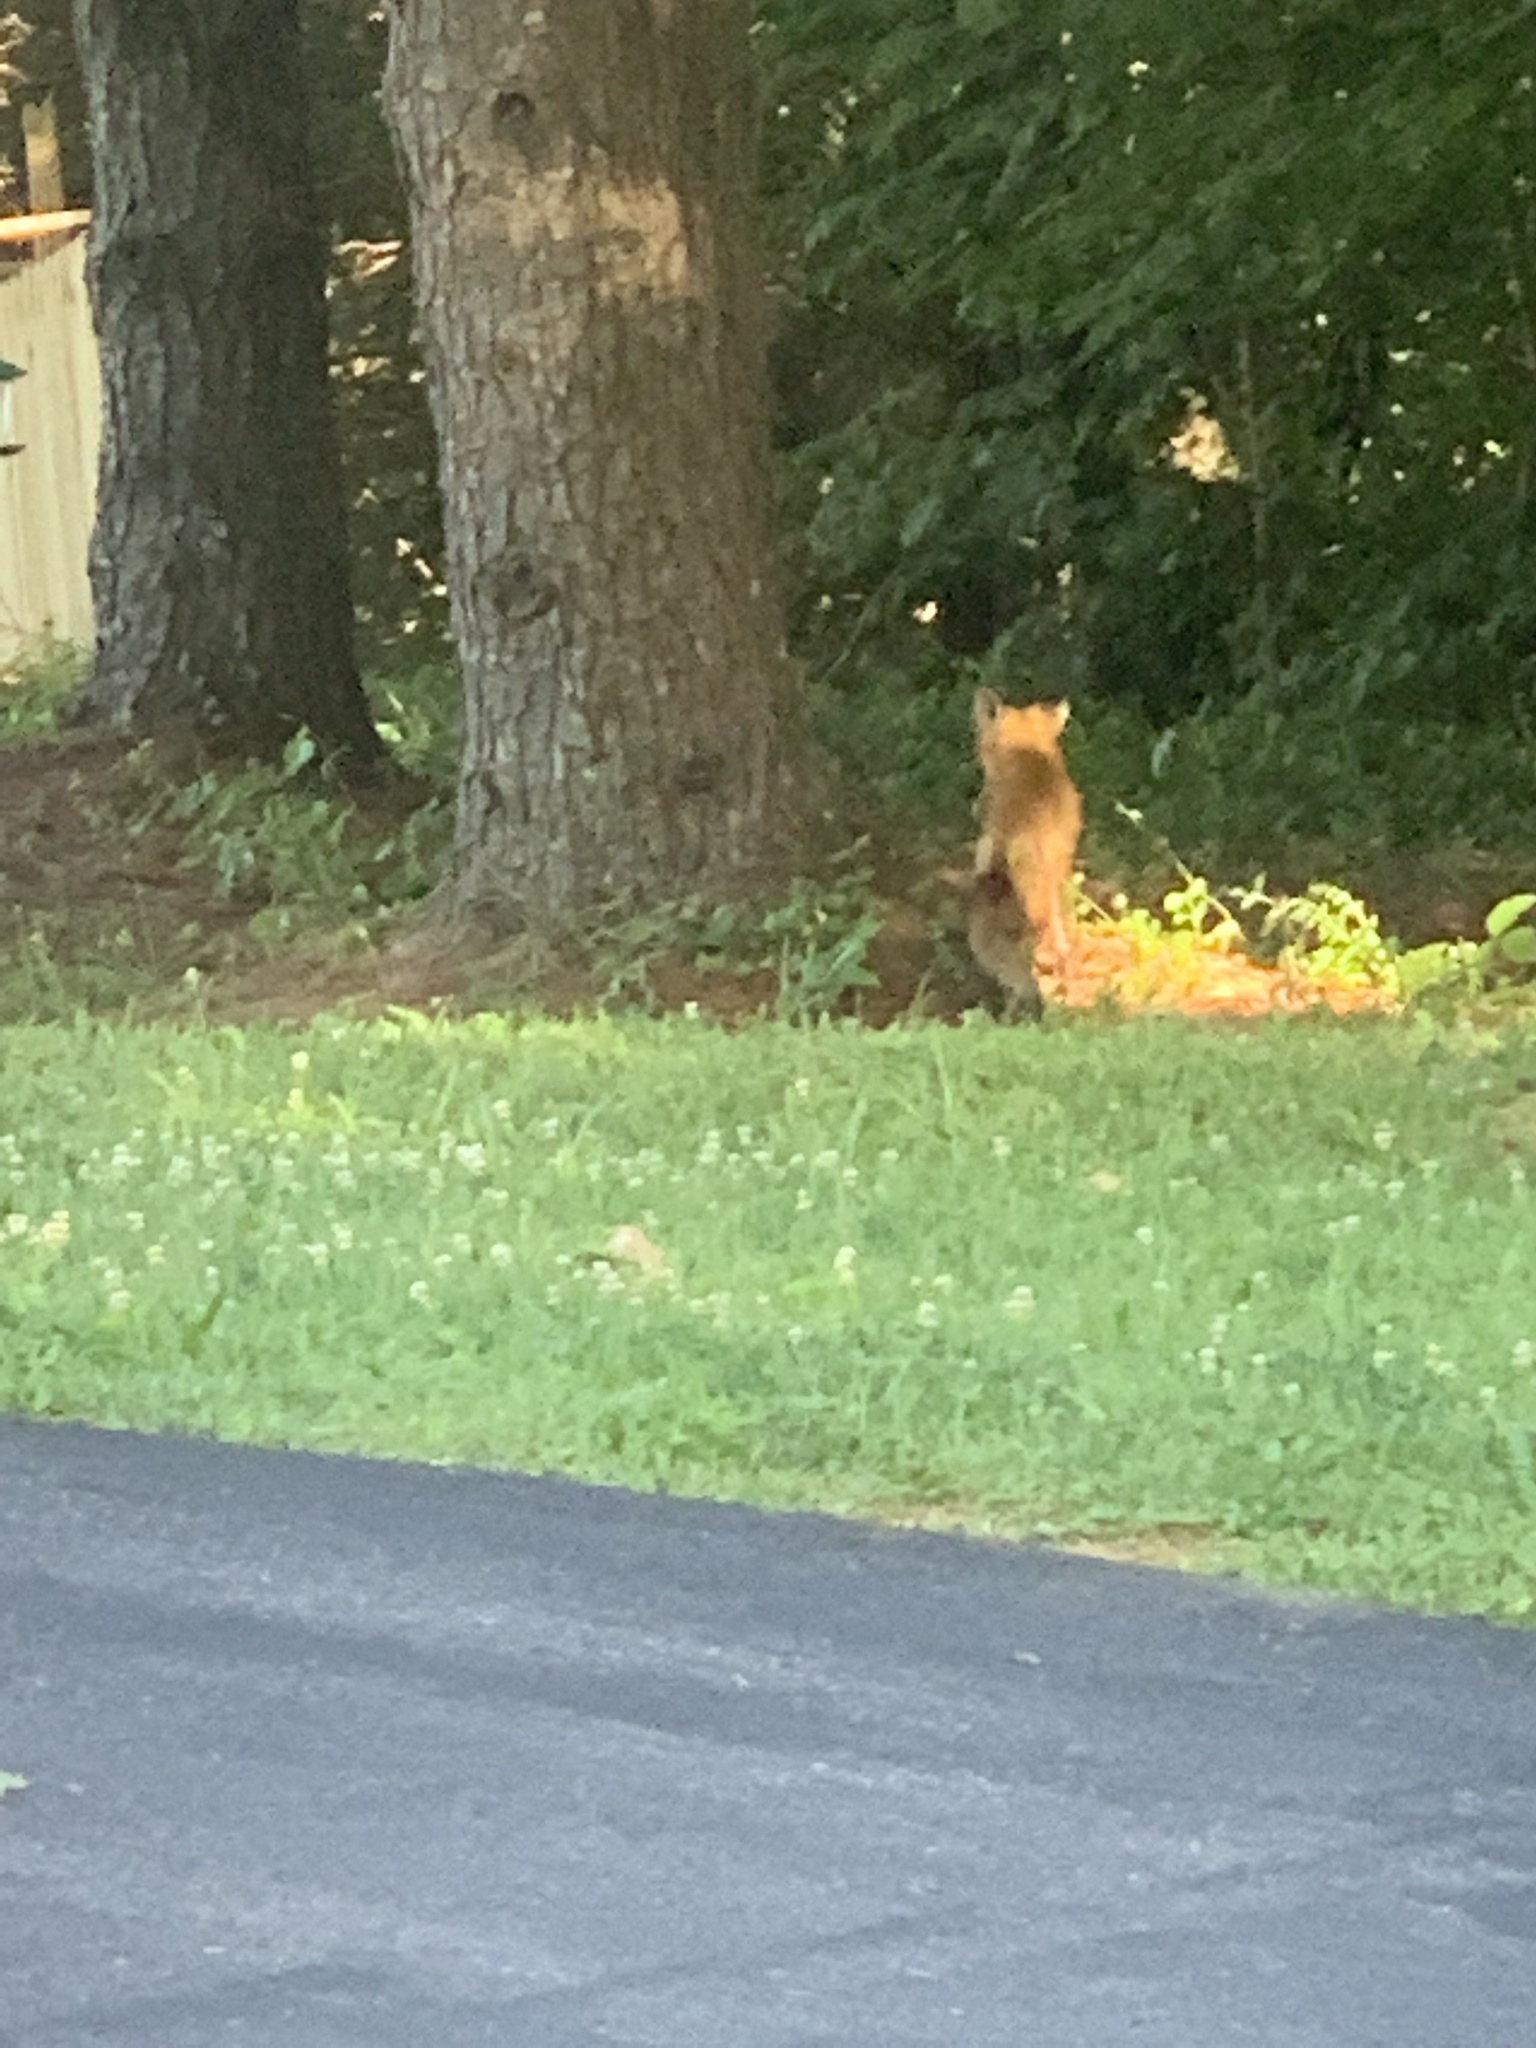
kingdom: Animalia
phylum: Chordata
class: Mammalia
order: Carnivora
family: Canidae
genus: Vulpes
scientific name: Vulpes vulpes
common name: Red fox
